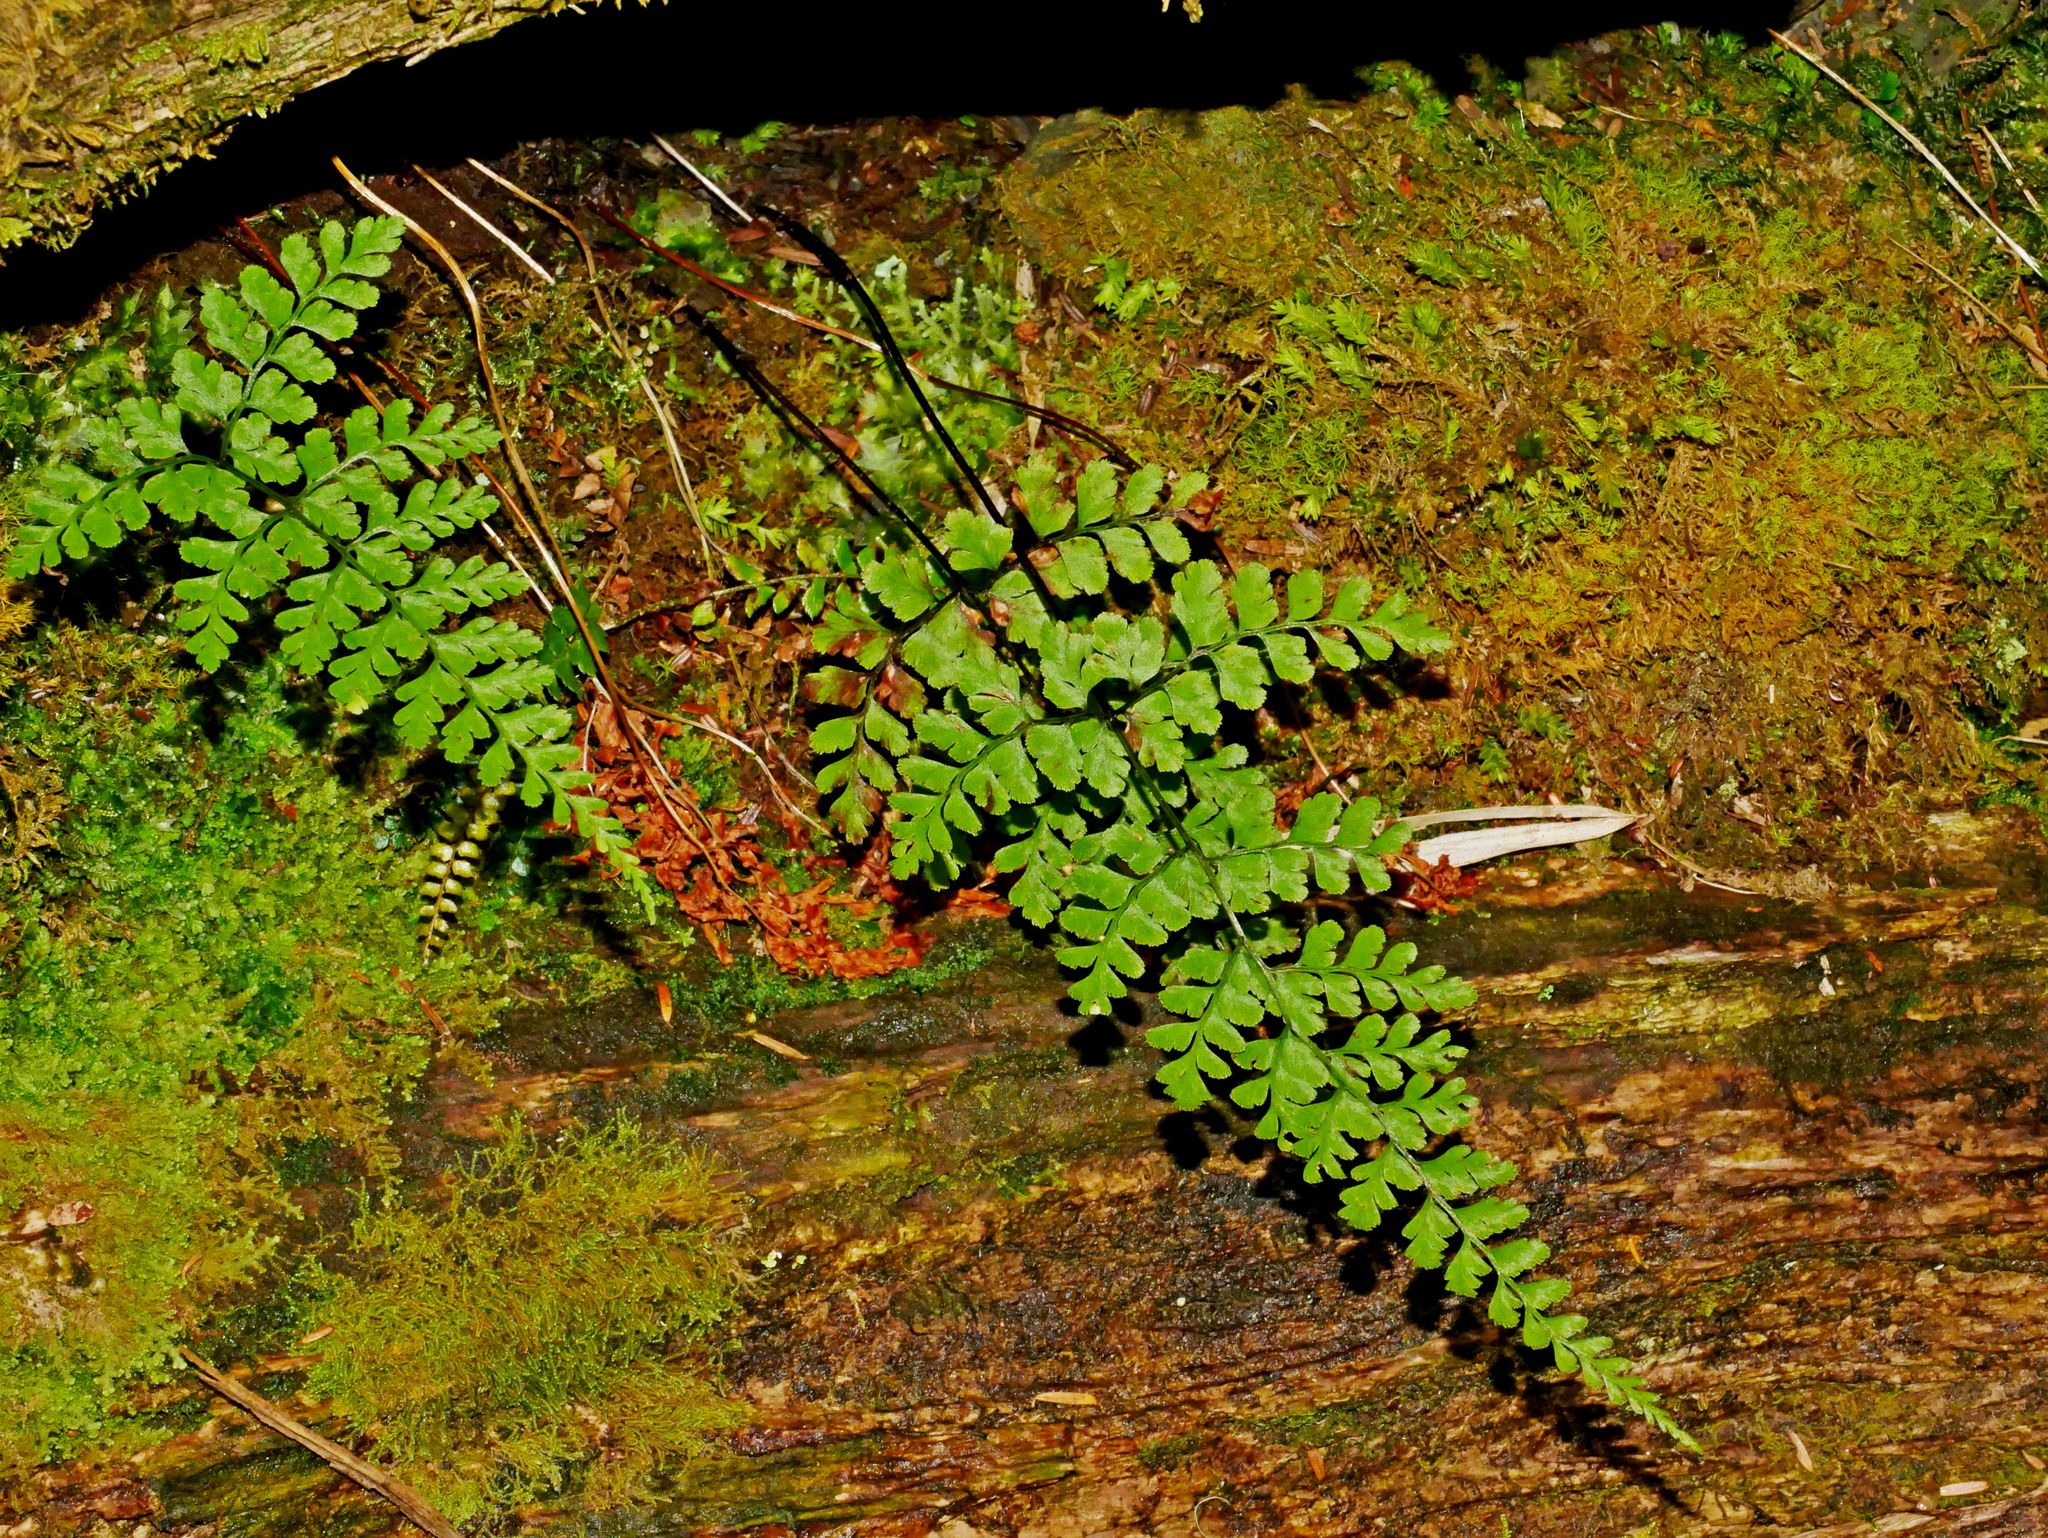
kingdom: Plantae
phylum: Tracheophyta
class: Polypodiopsida
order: Polypodiales
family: Cystopteridaceae
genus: Cystopteris
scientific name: Cystopteris moupinensis
